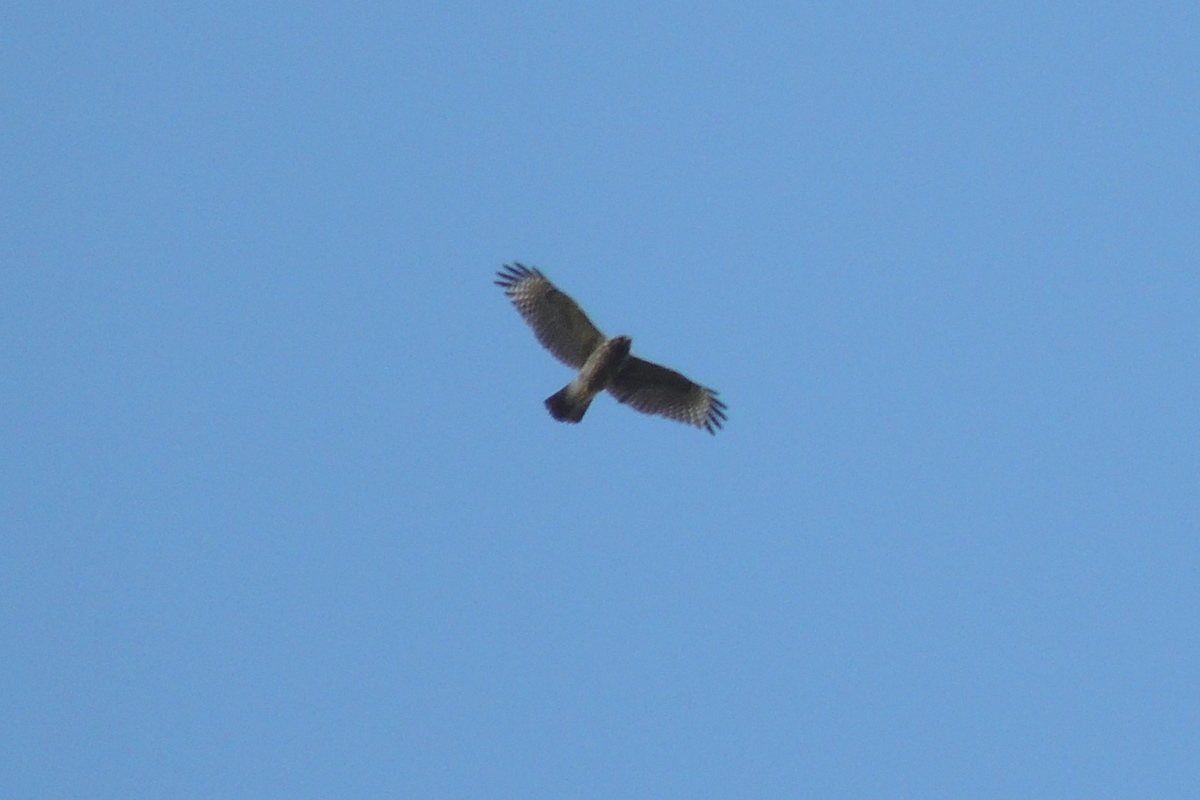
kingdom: Animalia
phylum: Chordata
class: Aves
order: Accipitriformes
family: Accipitridae
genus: Buteo
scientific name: Buteo lineatus
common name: Red-shouldered hawk
